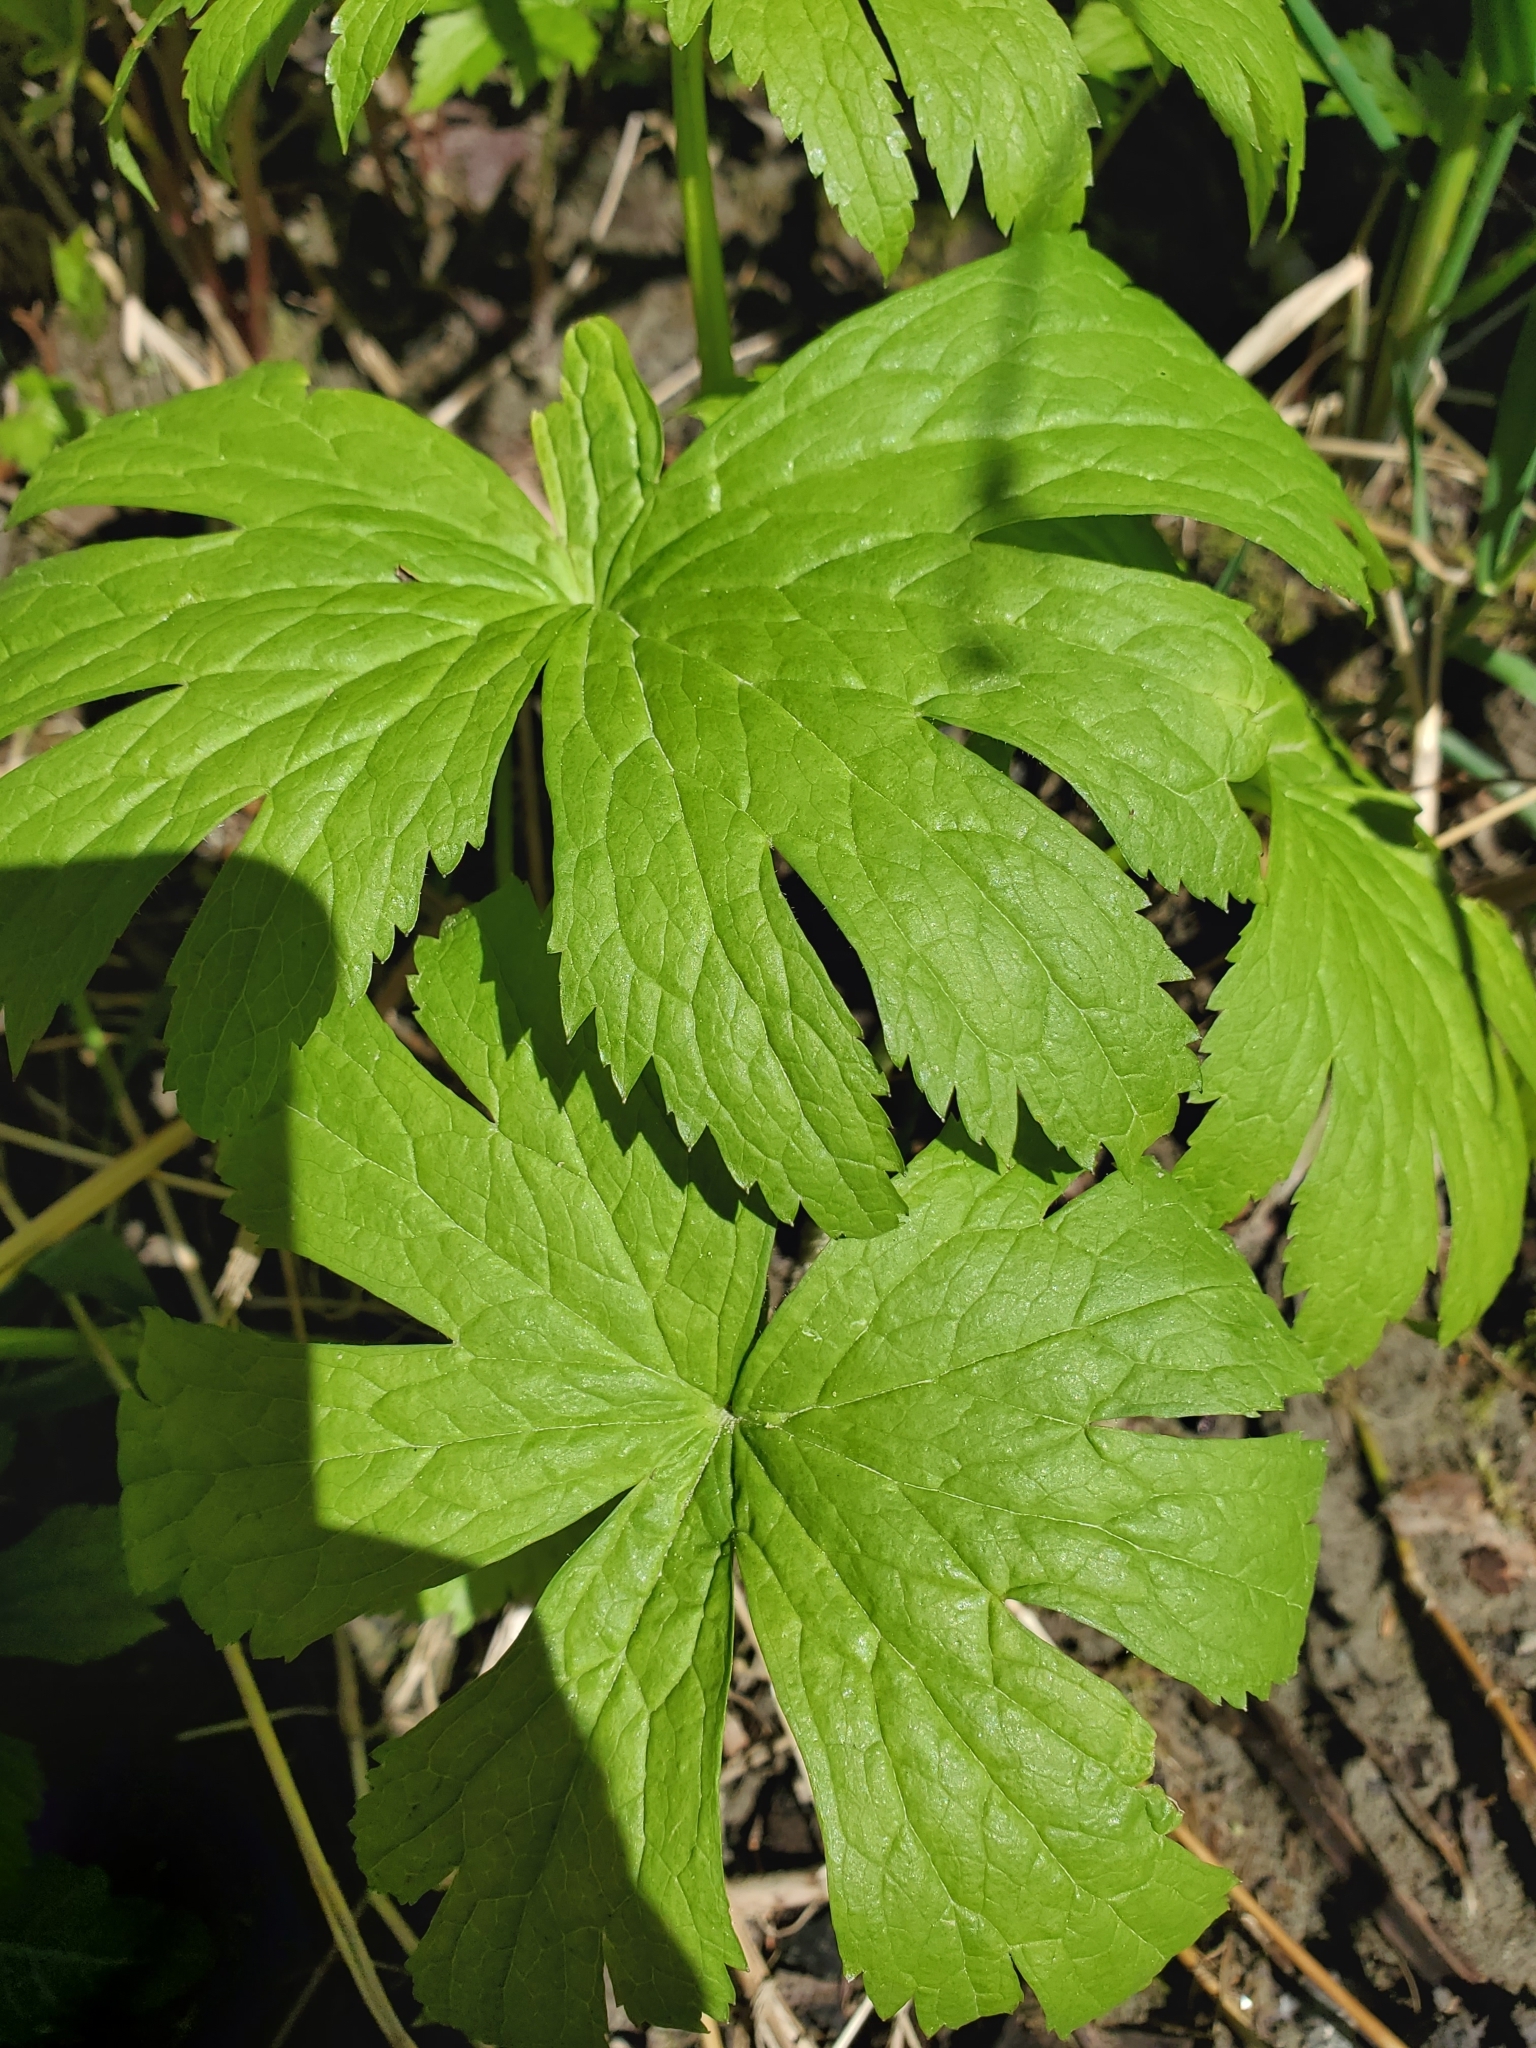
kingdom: Plantae
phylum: Tracheophyta
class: Magnoliopsida
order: Ranunculales
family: Ranunculaceae
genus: Trautvetteria
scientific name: Trautvetteria carolinensis
